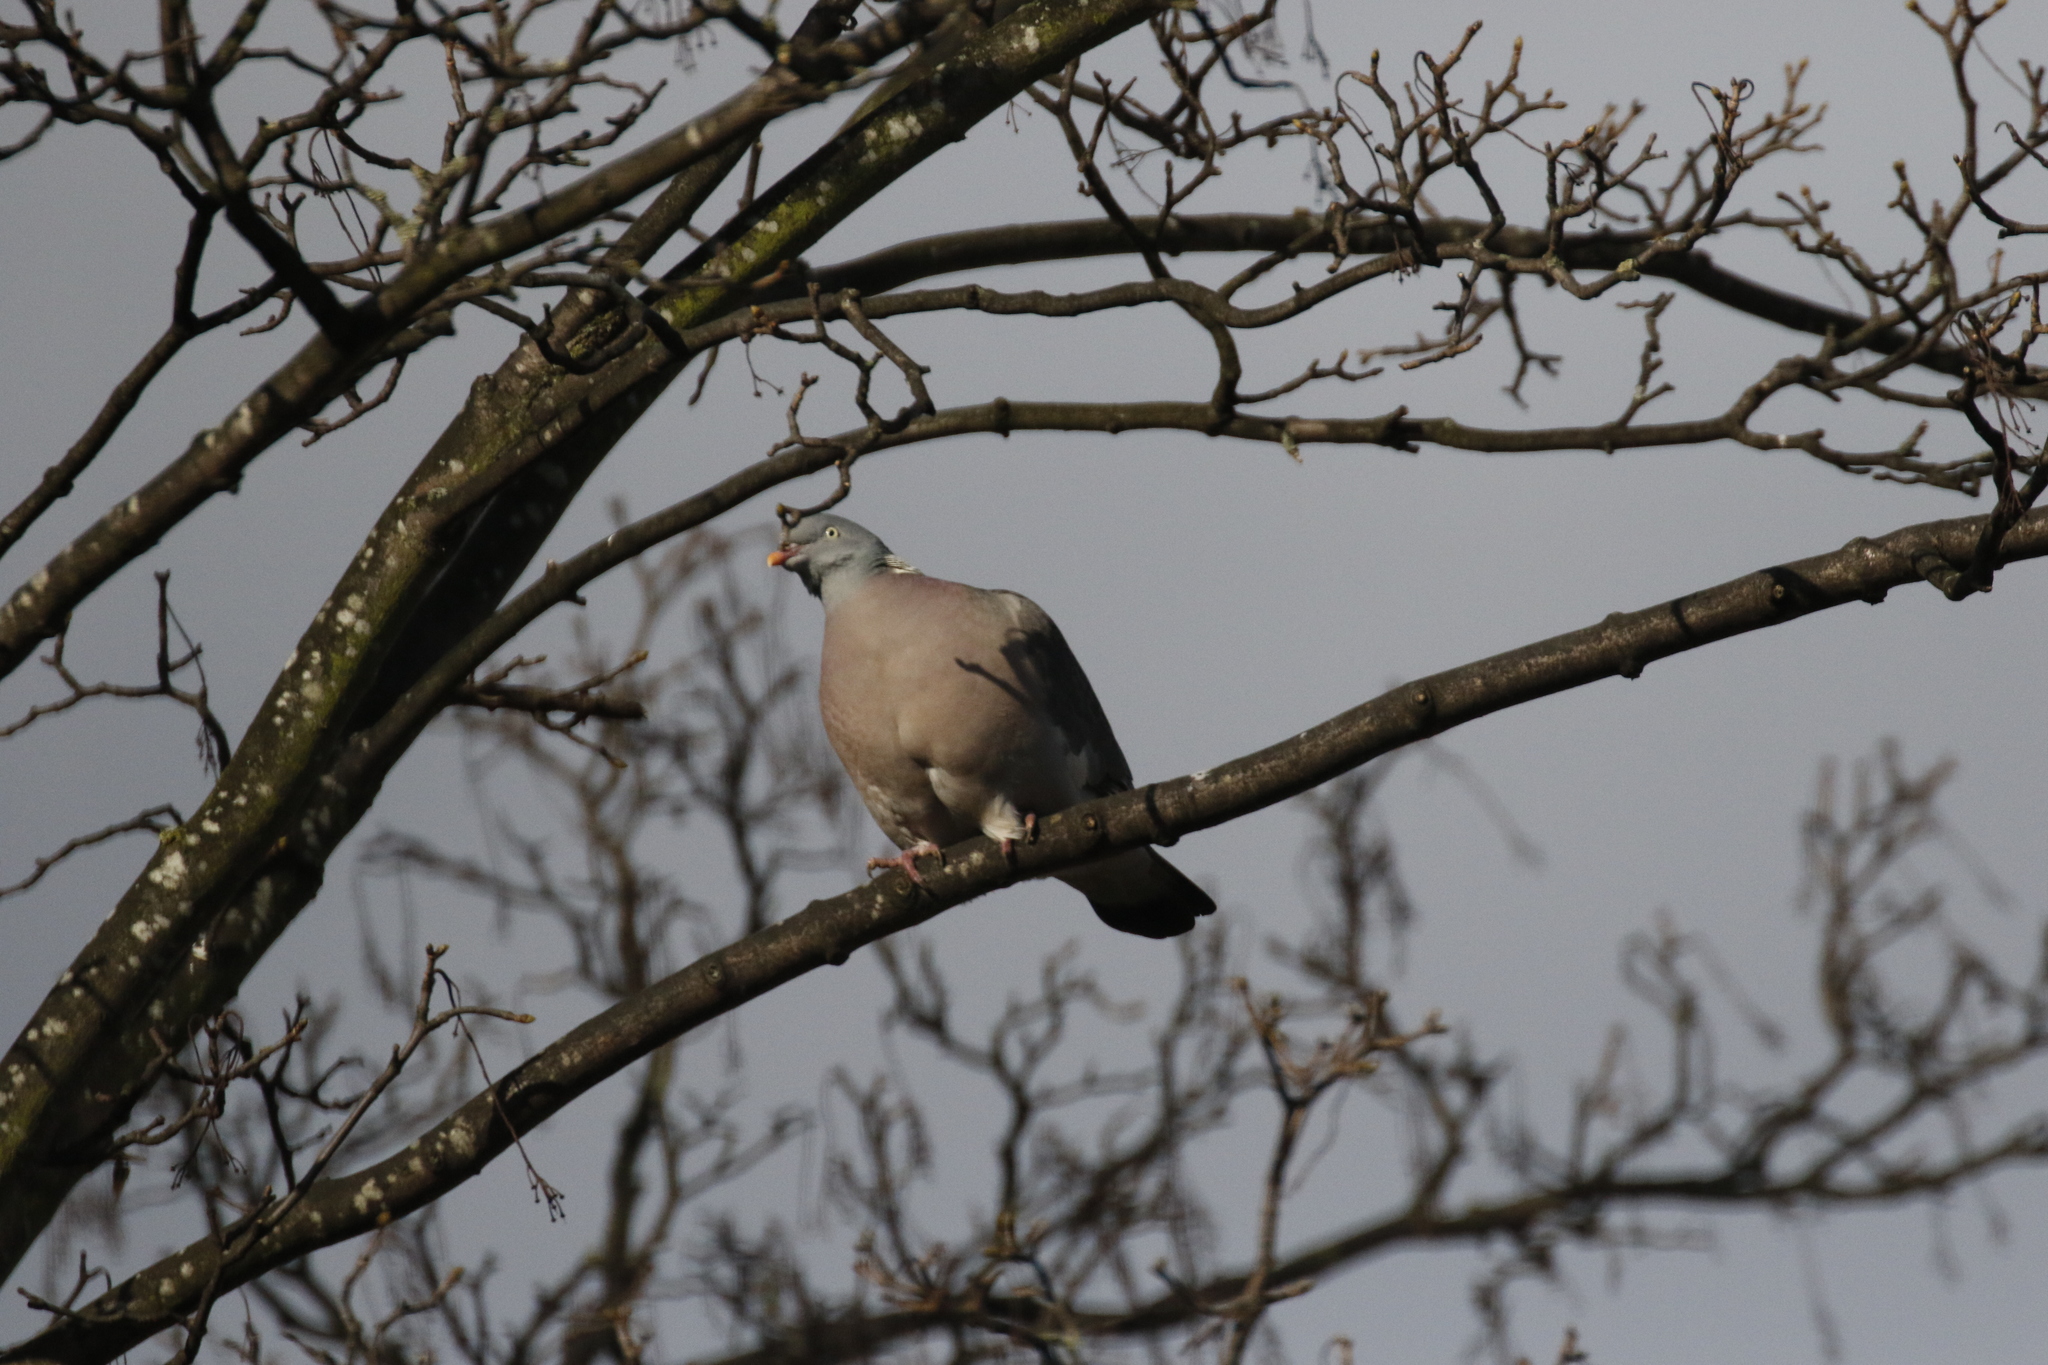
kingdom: Animalia
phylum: Chordata
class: Aves
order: Columbiformes
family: Columbidae
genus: Columba
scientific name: Columba palumbus
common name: Common wood pigeon
